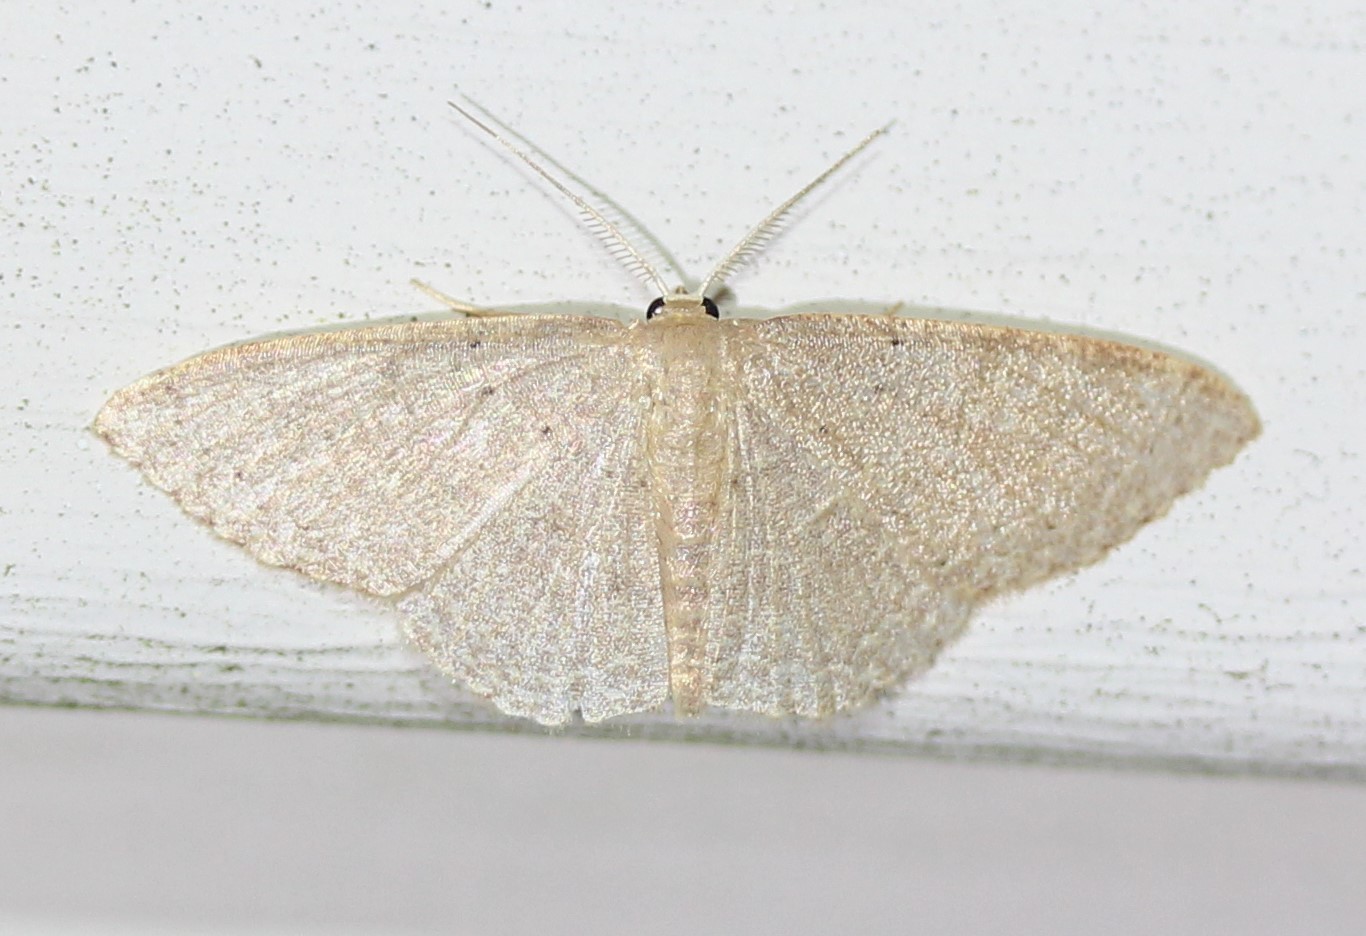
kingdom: Animalia
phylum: Arthropoda
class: Insecta
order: Lepidoptera
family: Geometridae
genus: Pleuroprucha
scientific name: Pleuroprucha insulsaria
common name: Common tan wave
